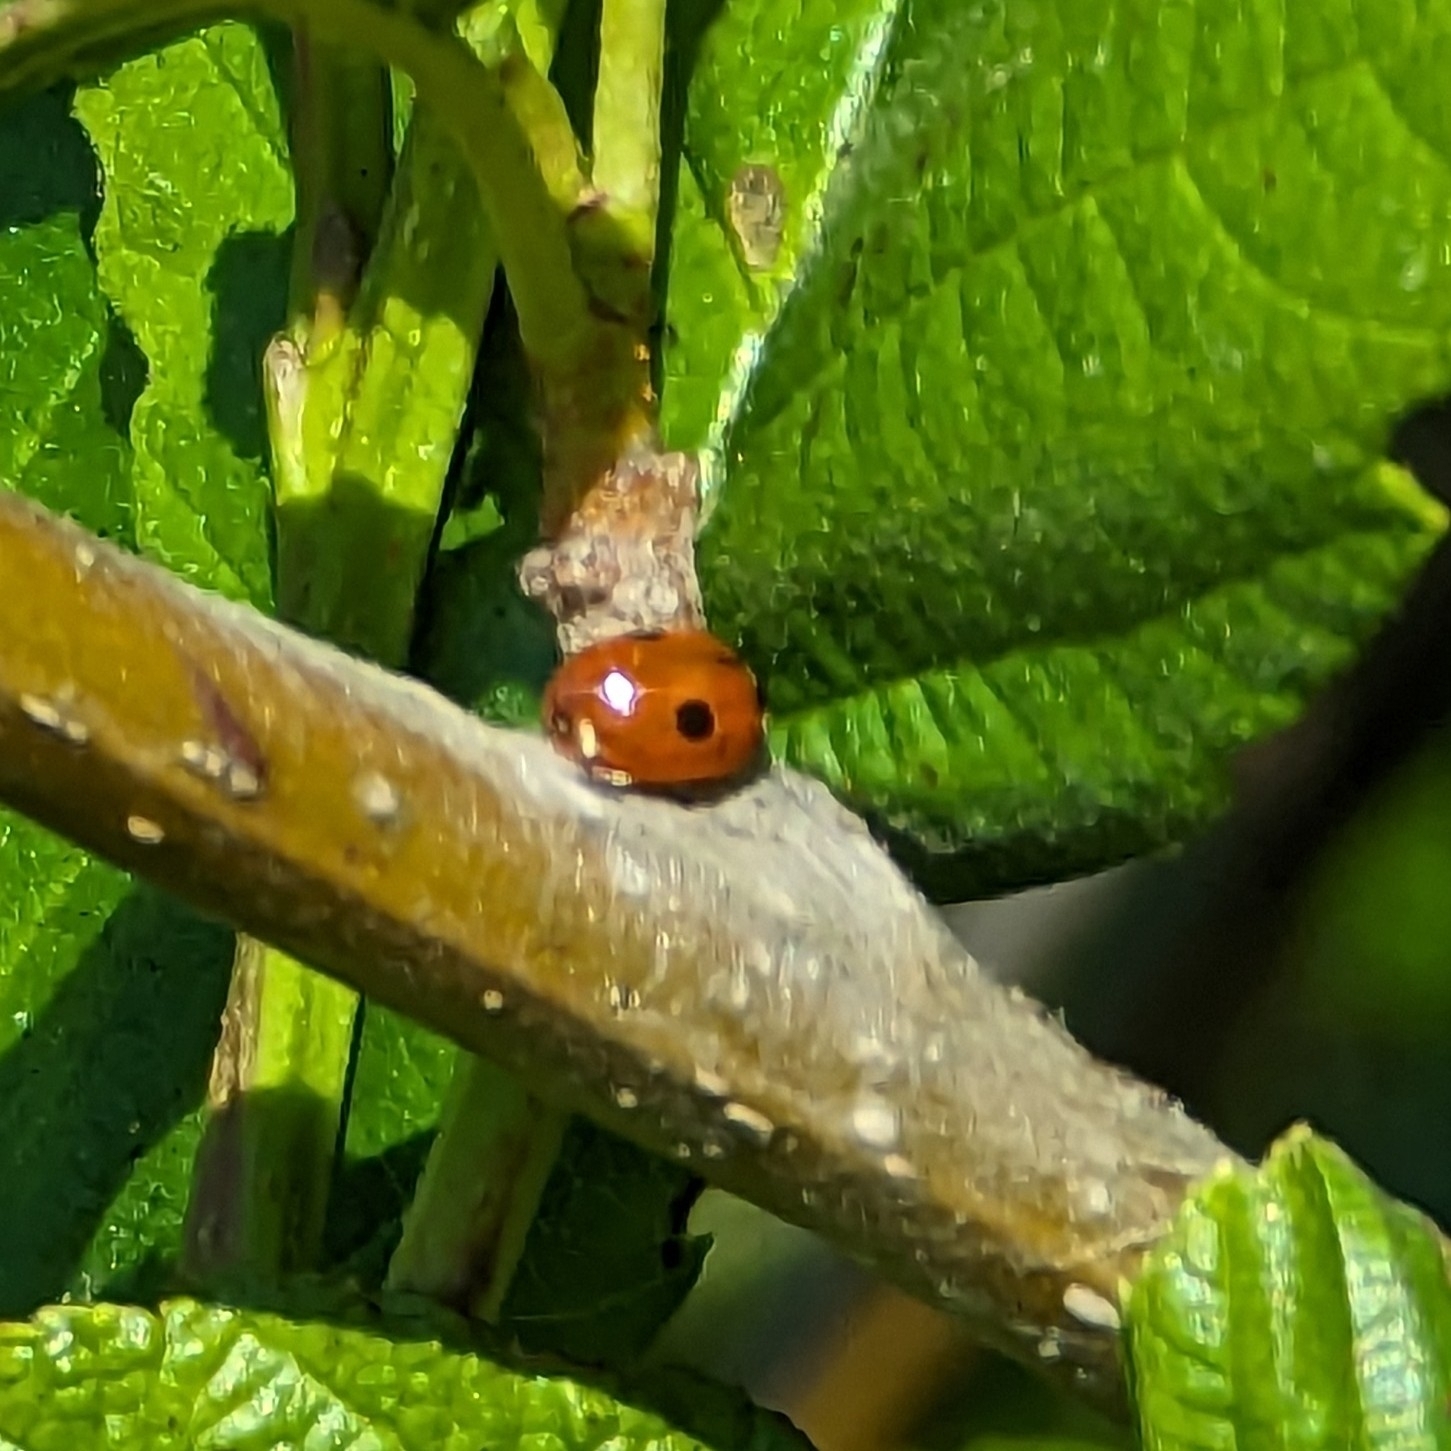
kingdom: Animalia
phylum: Arthropoda
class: Insecta
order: Coleoptera
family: Coccinellidae
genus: Adalia
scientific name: Adalia bipunctata
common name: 2-spot ladybird
